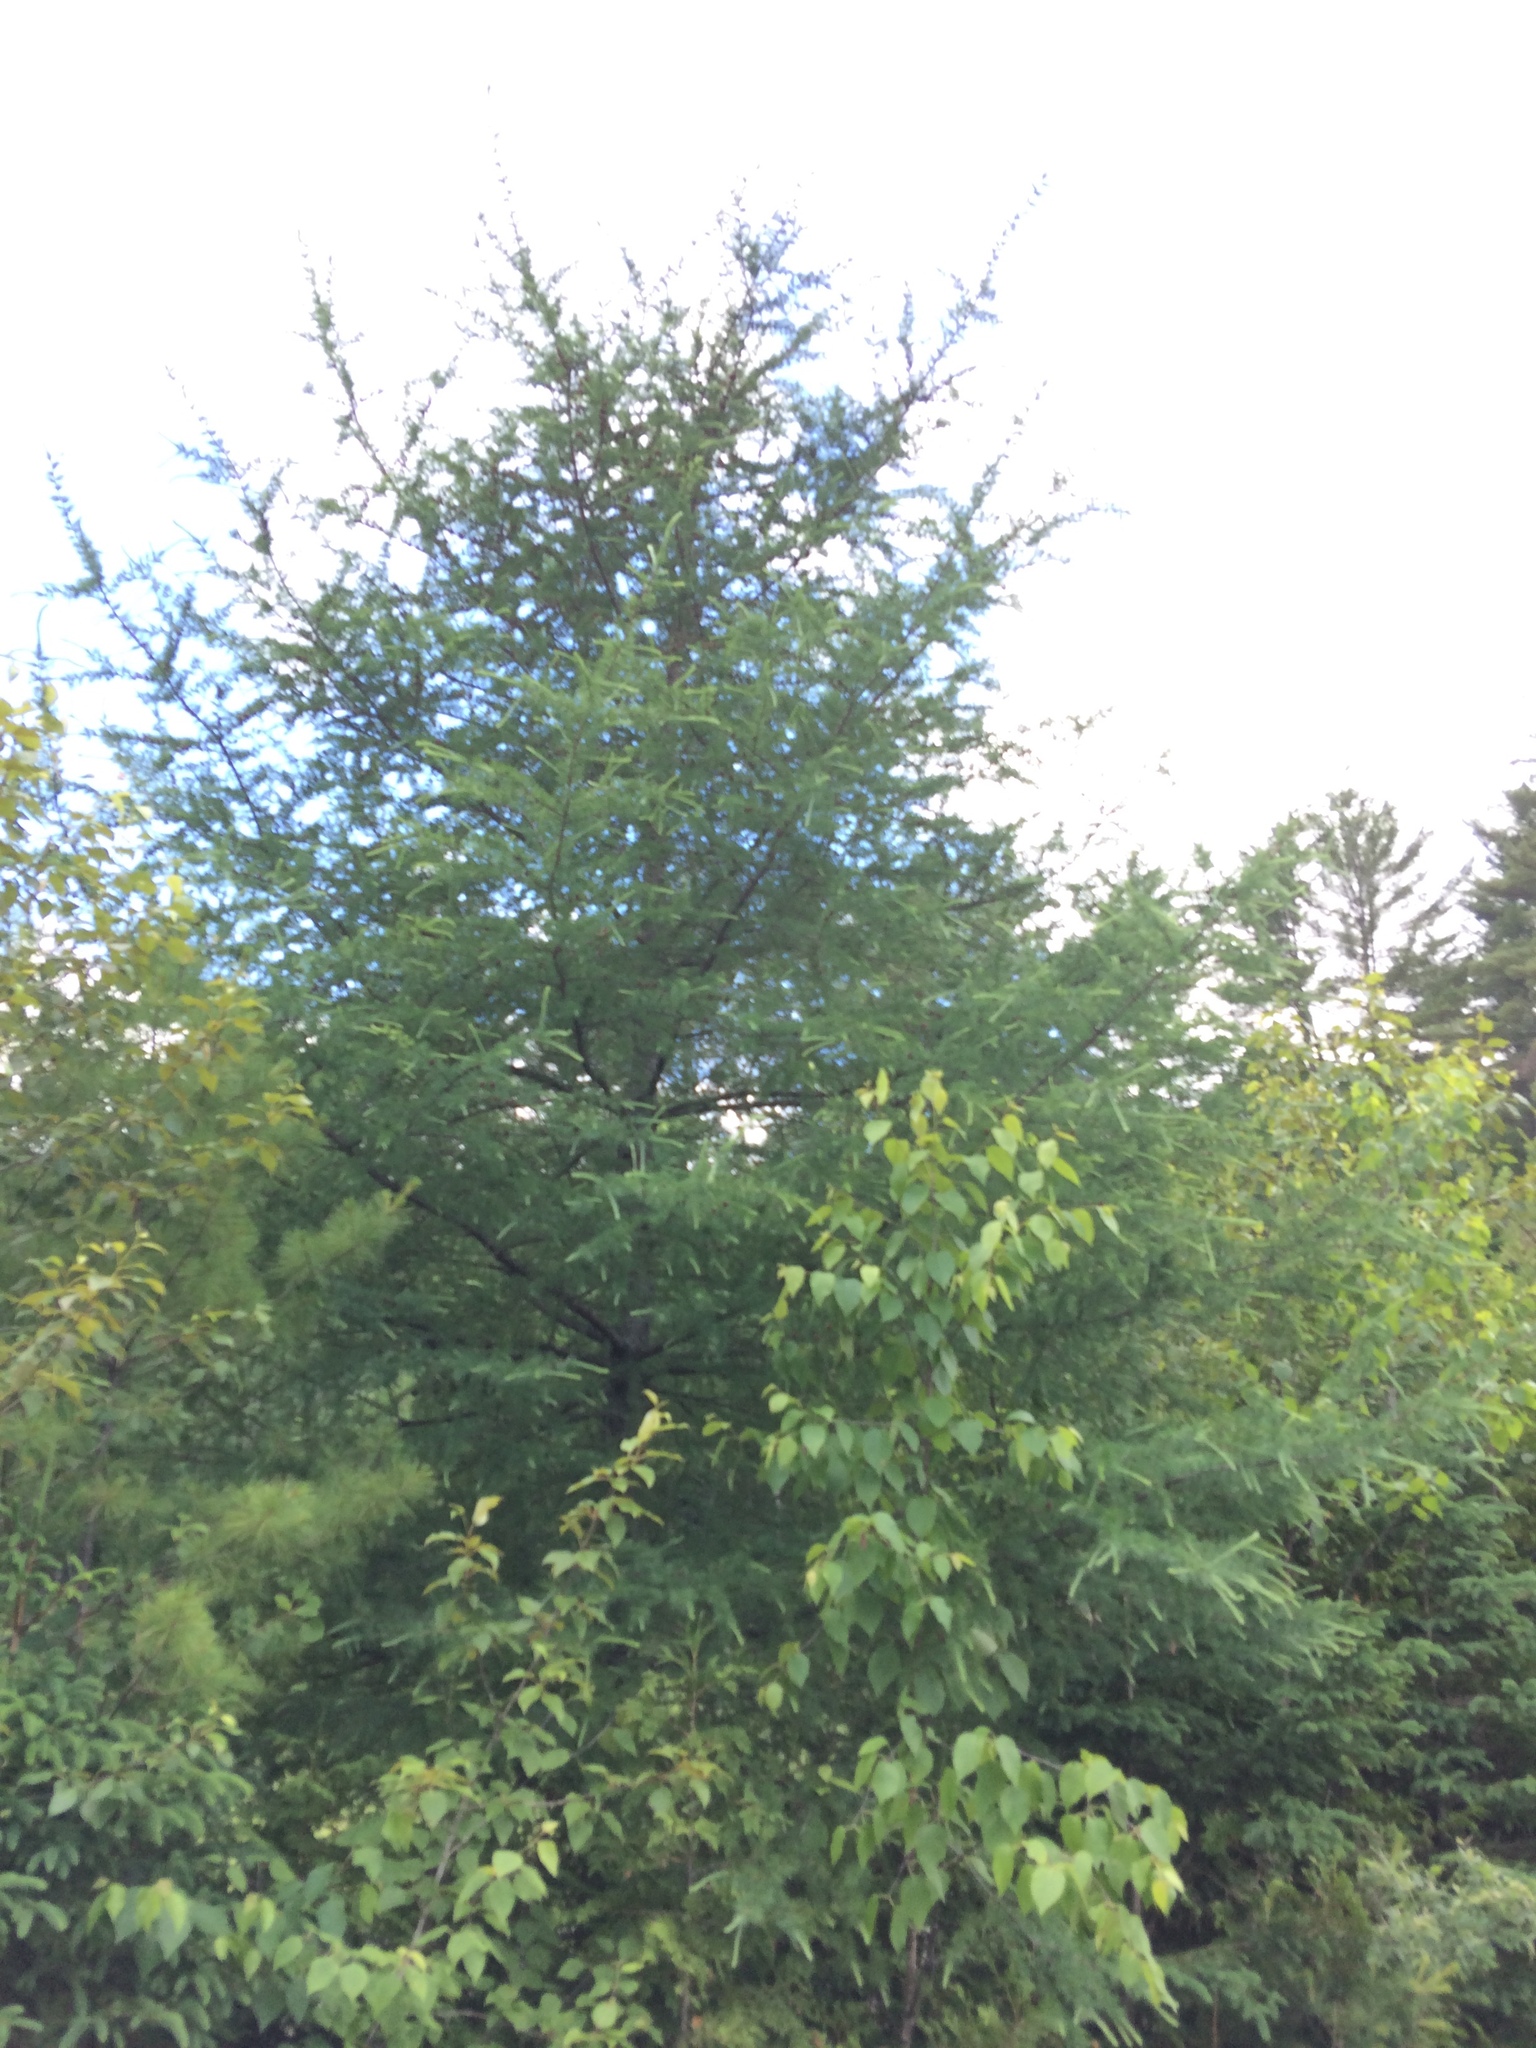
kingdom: Plantae
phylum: Tracheophyta
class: Pinopsida
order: Pinales
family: Pinaceae
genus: Larix
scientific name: Larix laricina
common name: American larch
